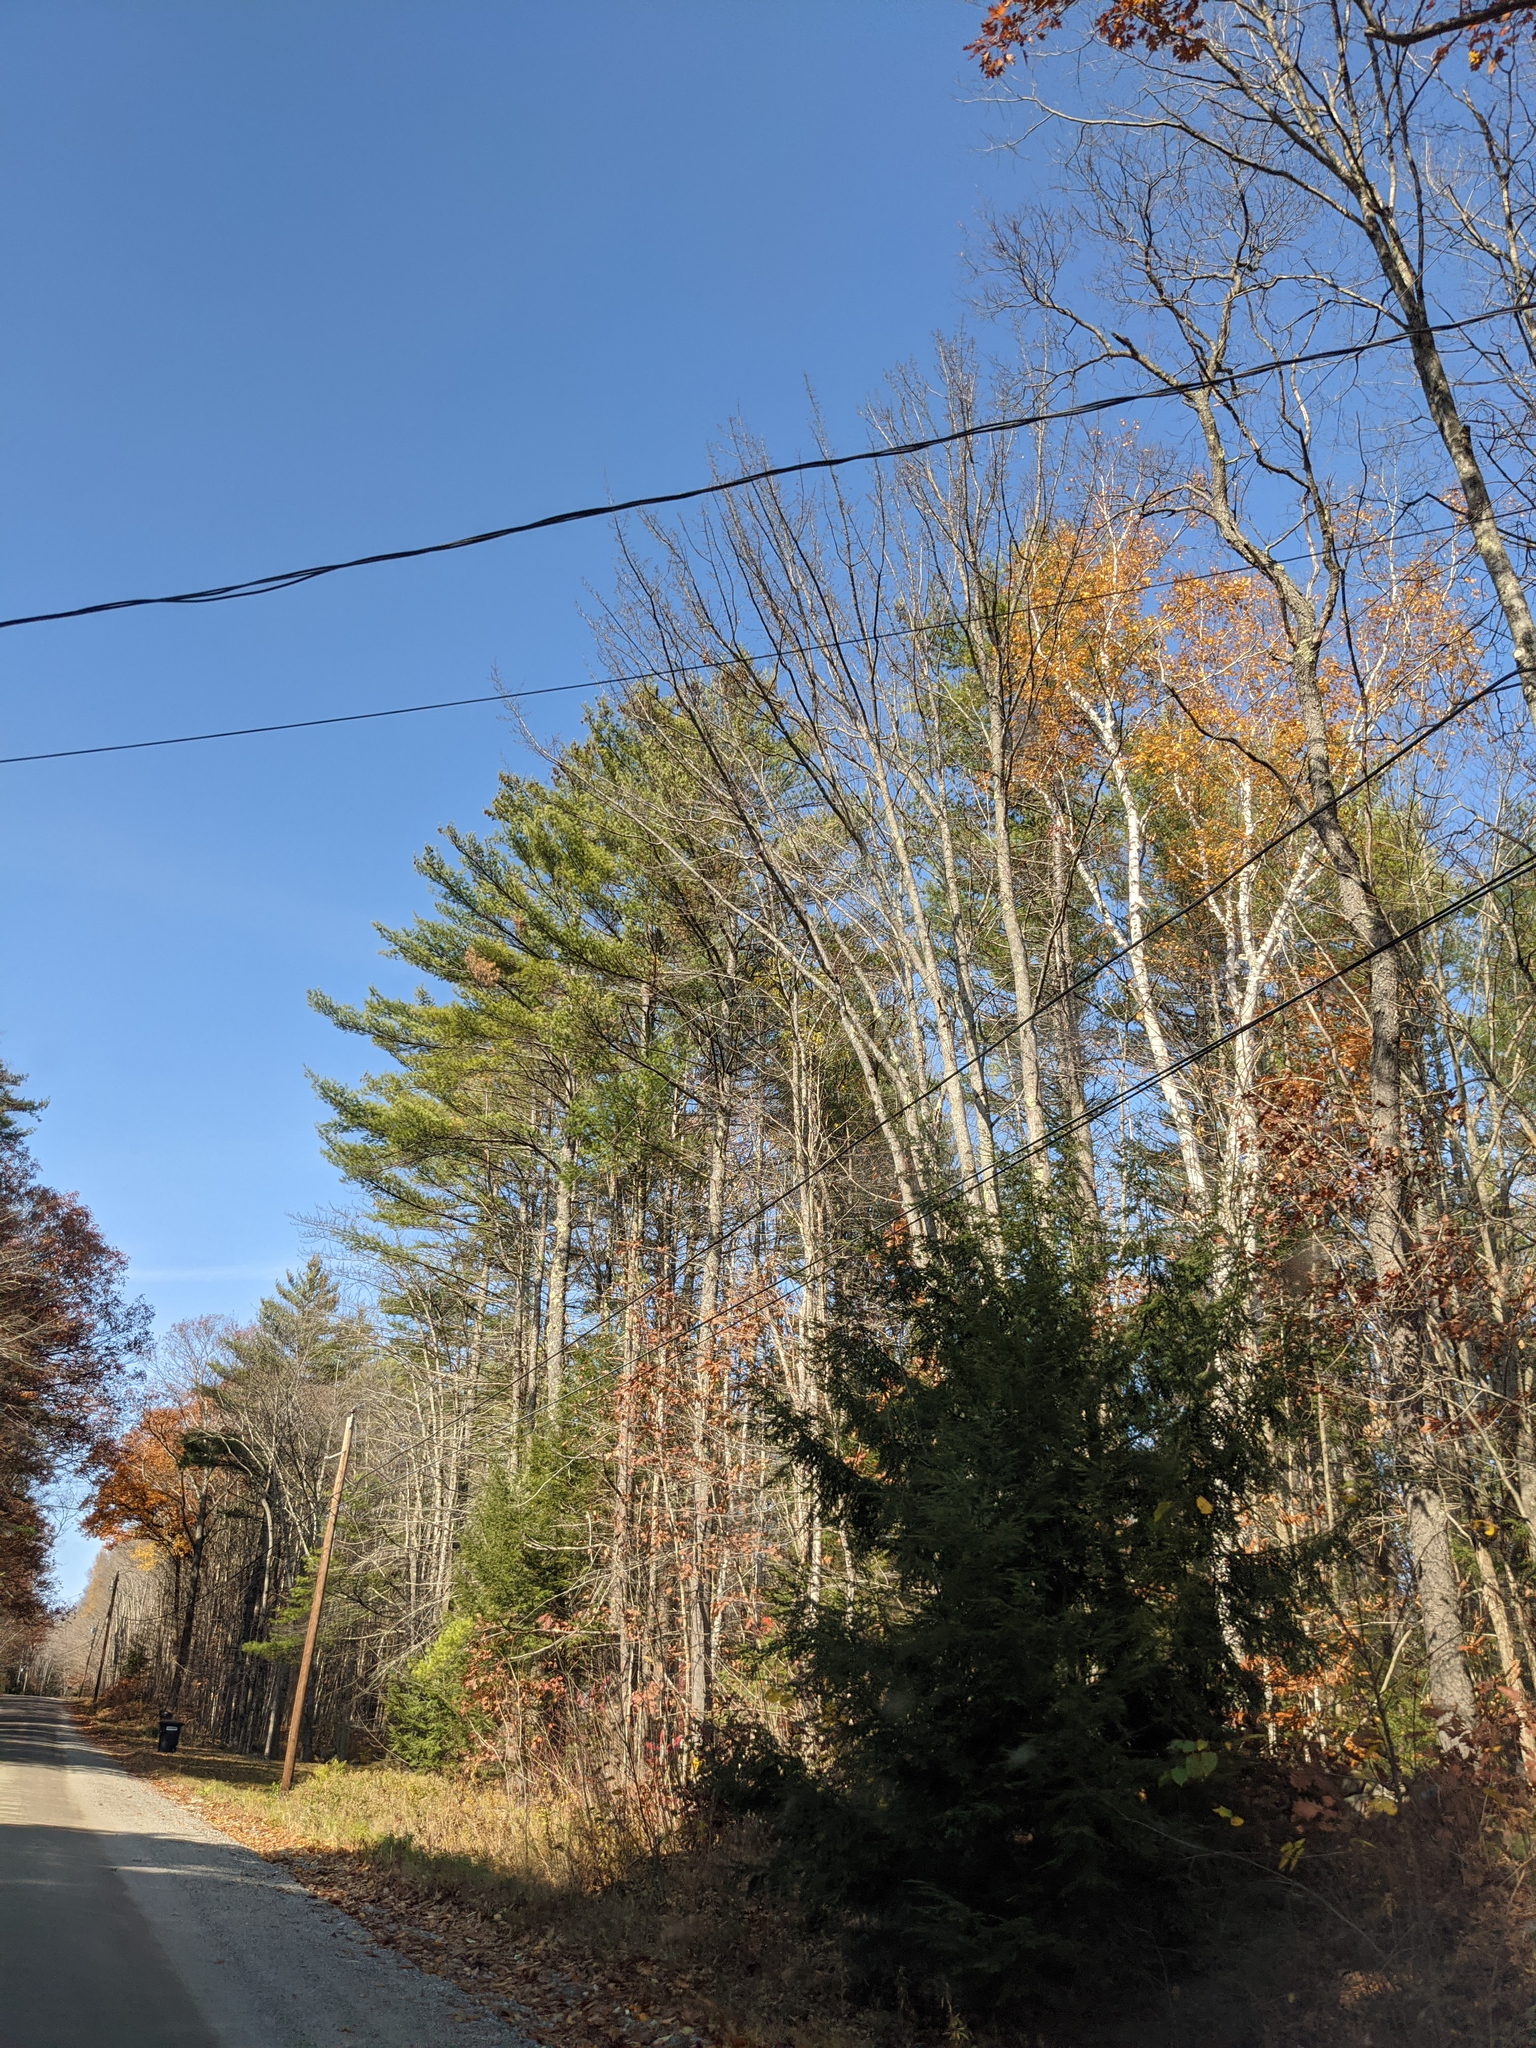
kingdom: Plantae
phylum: Tracheophyta
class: Pinopsida
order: Pinales
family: Pinaceae
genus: Pinus
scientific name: Pinus strobus
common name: Weymouth pine
